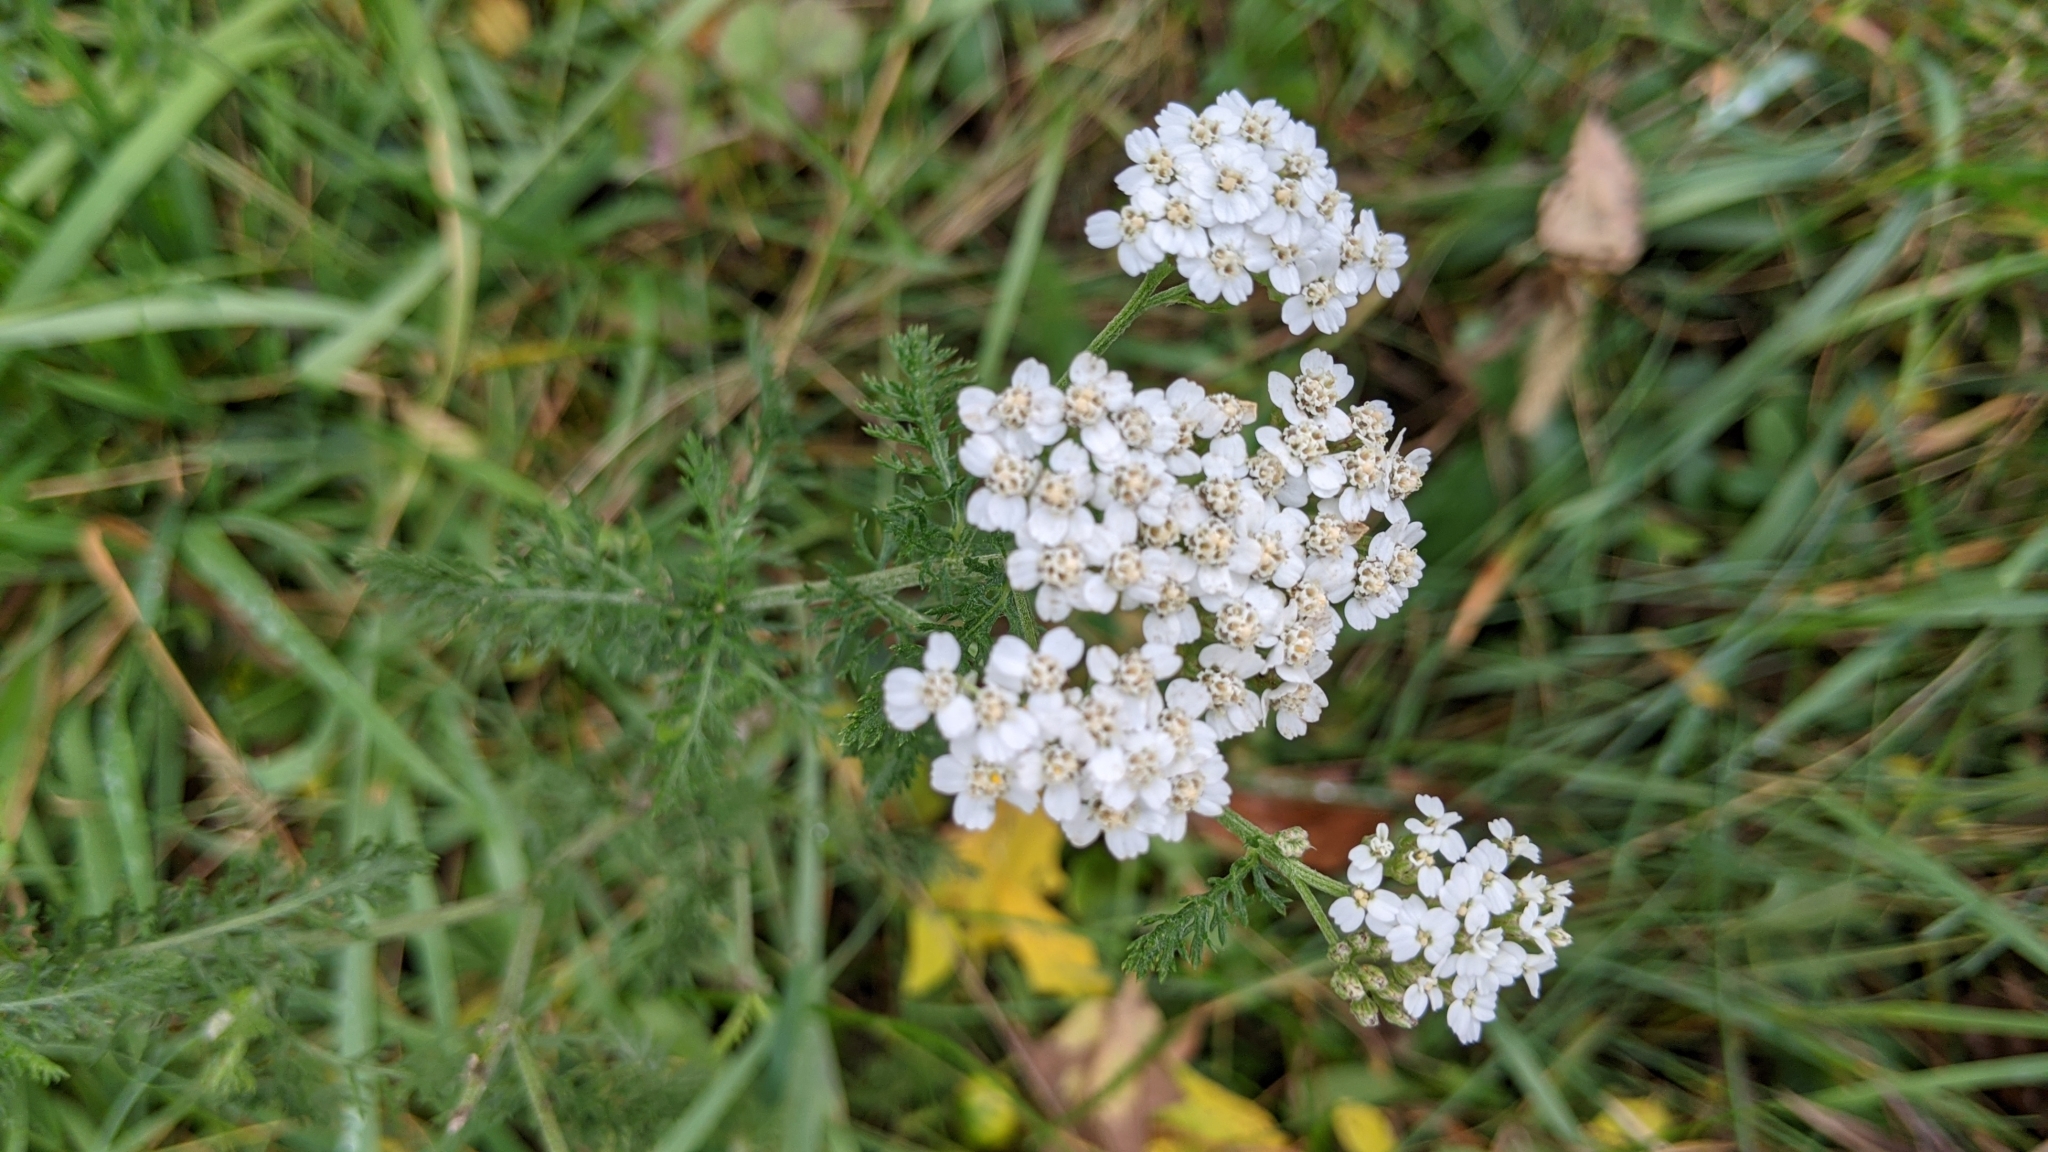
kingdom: Plantae
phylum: Tracheophyta
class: Magnoliopsida
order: Asterales
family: Asteraceae
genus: Achillea
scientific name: Achillea millefolium
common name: Yarrow
